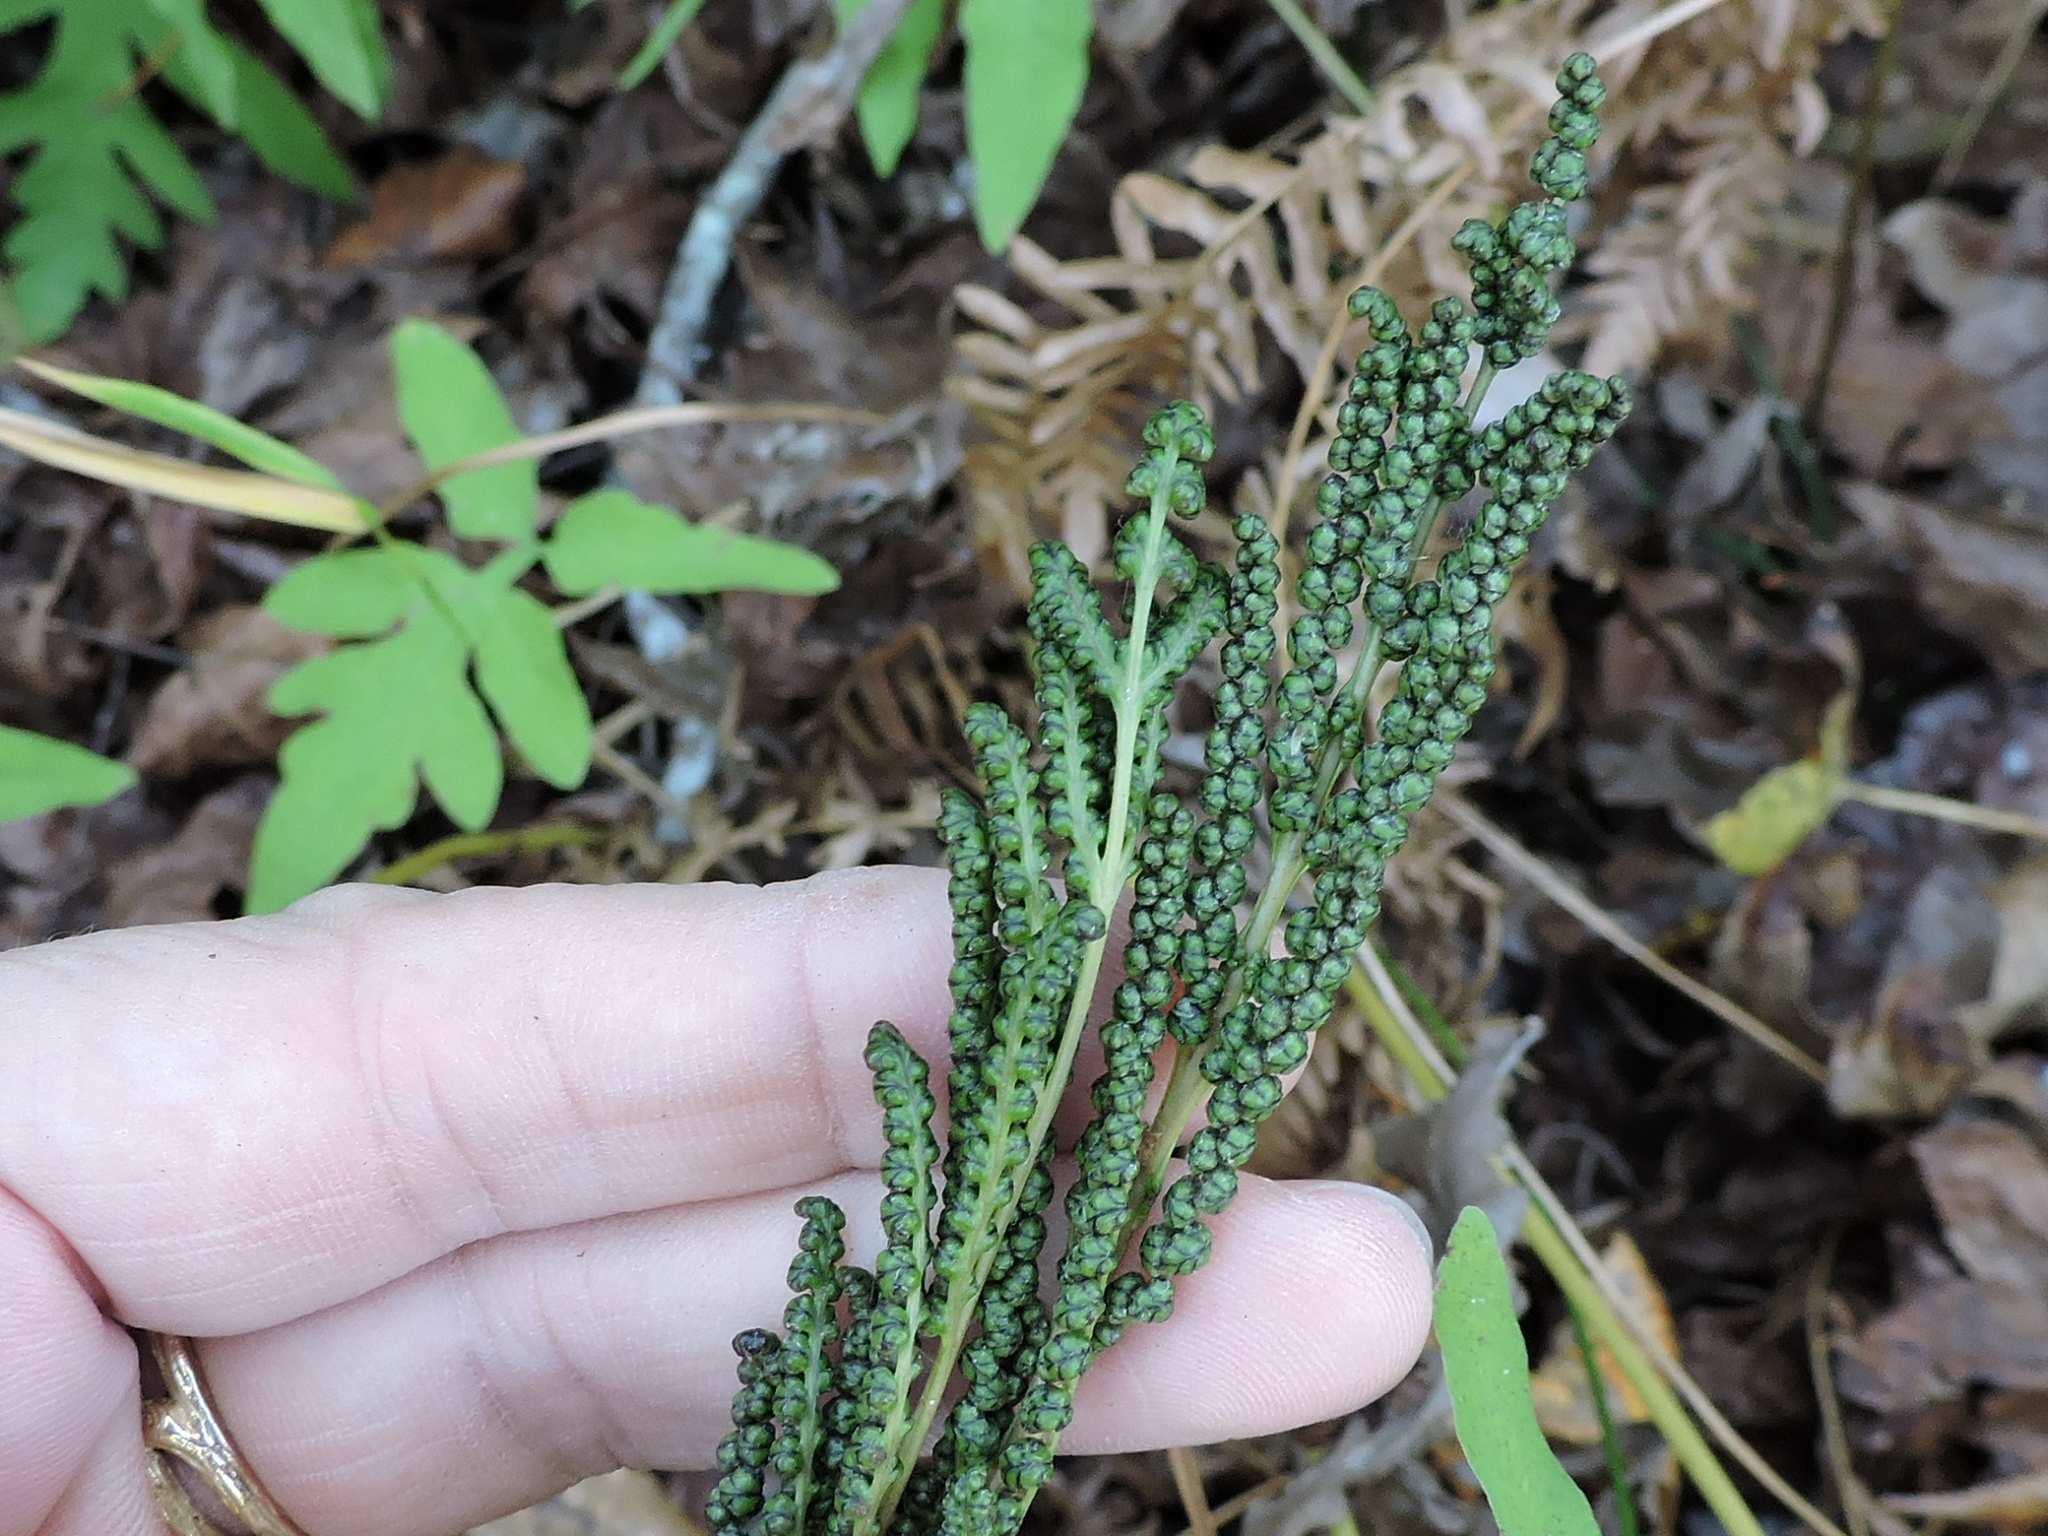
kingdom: Plantae
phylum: Tracheophyta
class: Polypodiopsida
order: Polypodiales
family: Onocleaceae
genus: Onoclea
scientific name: Onoclea sensibilis
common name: Sensitive fern
